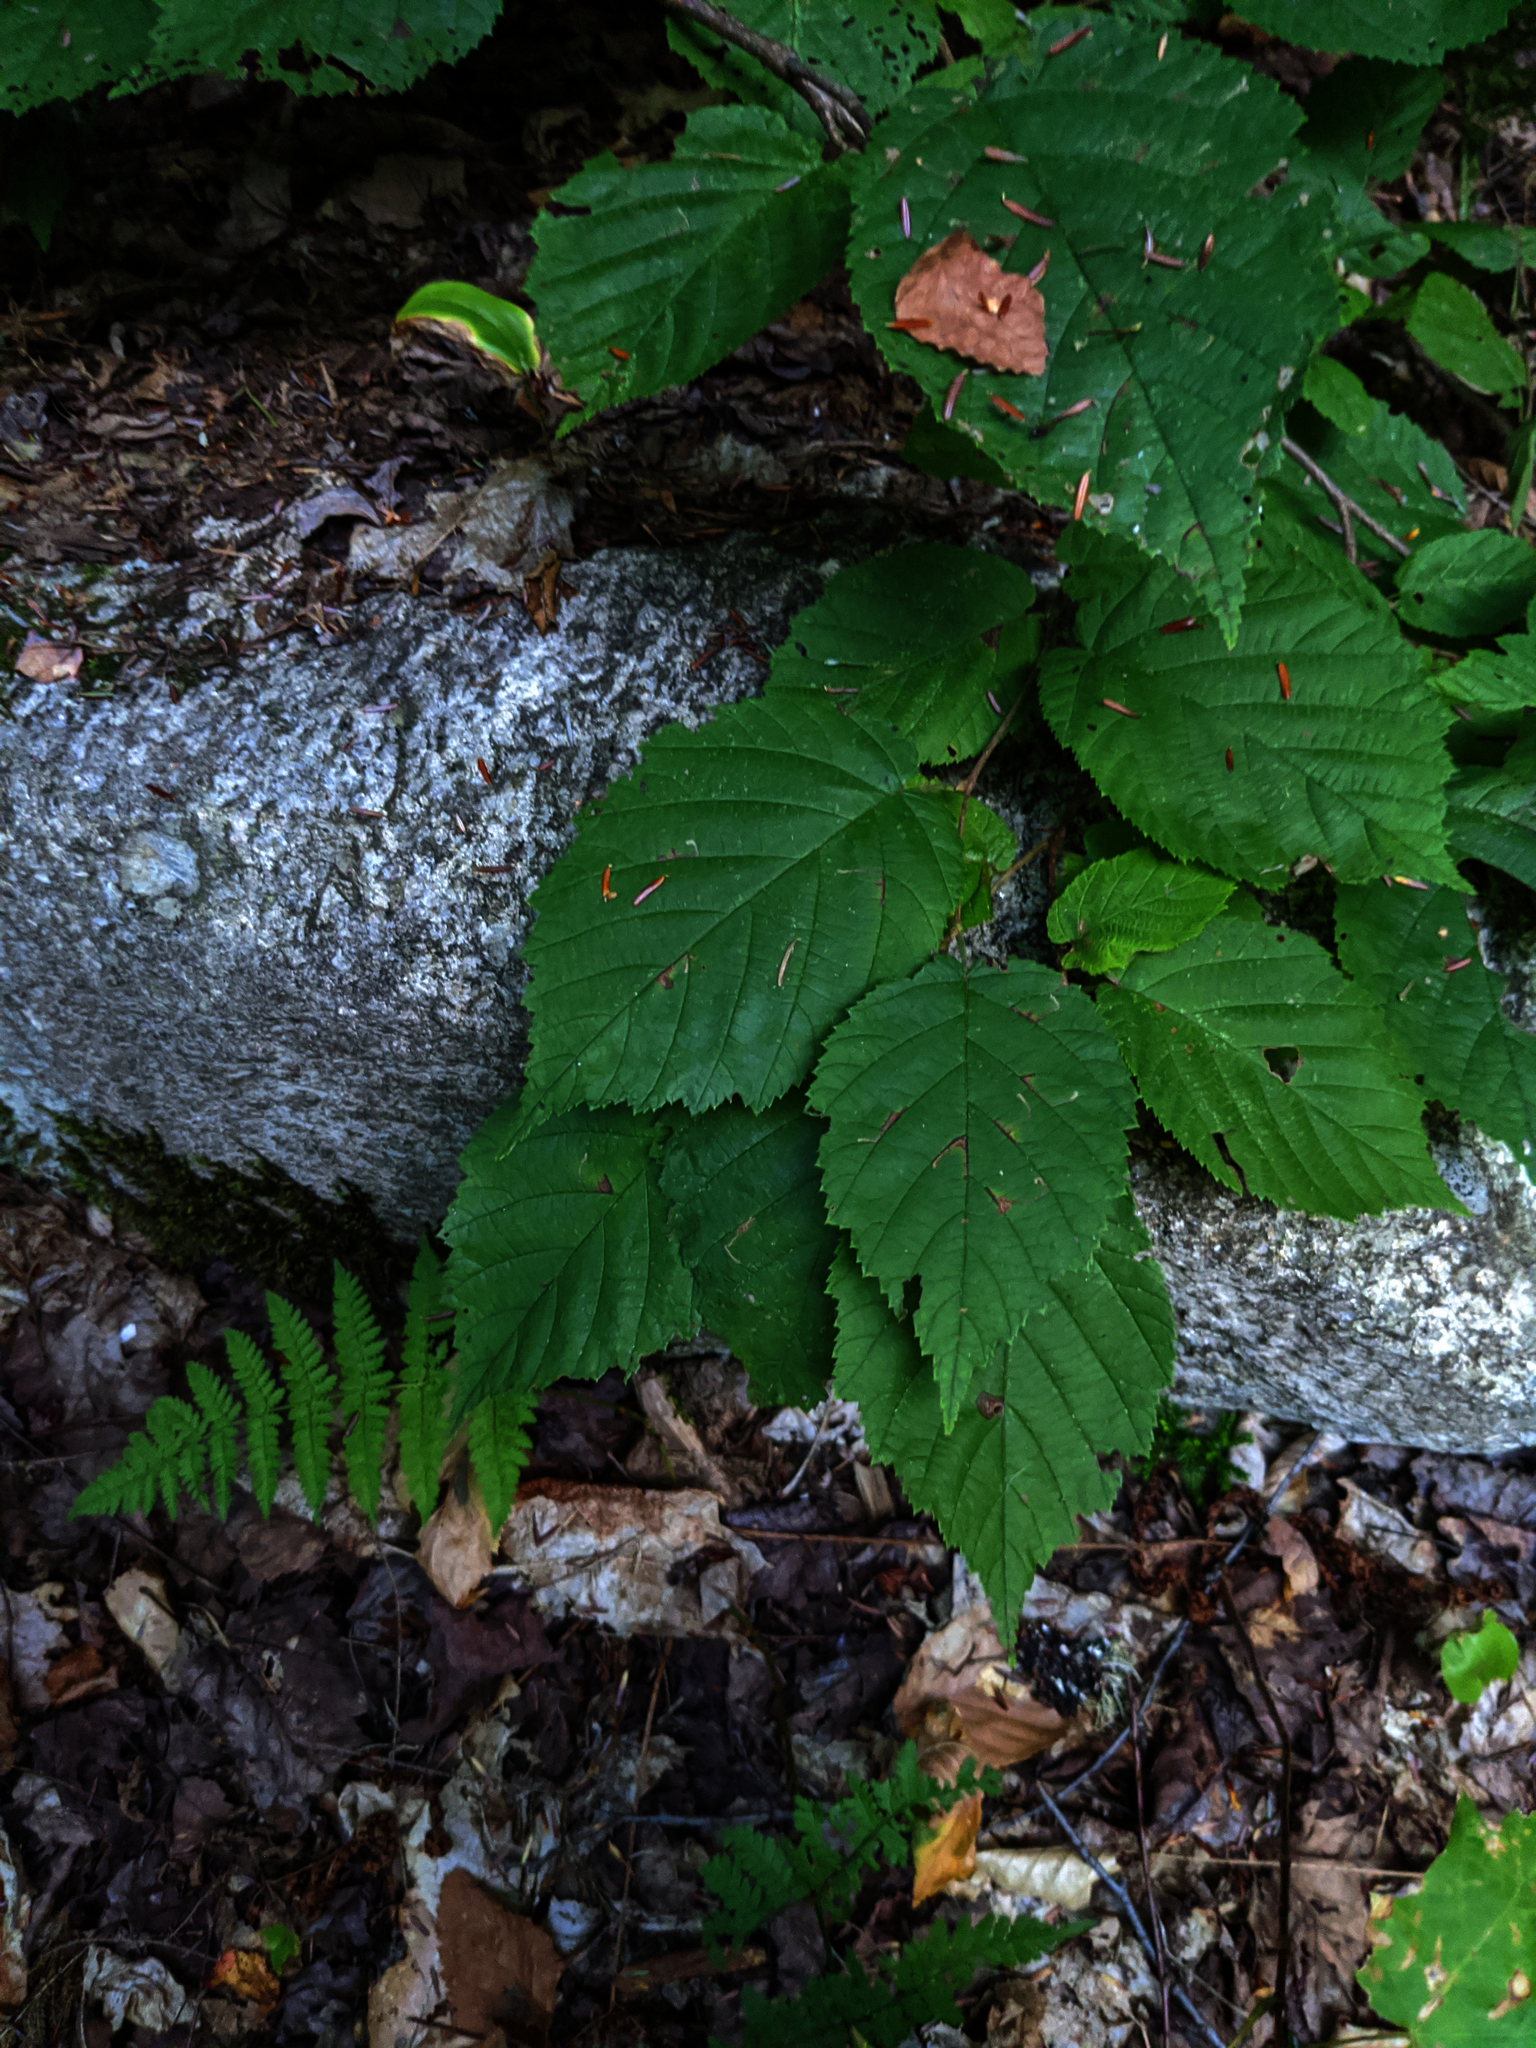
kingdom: Plantae
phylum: Tracheophyta
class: Magnoliopsida
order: Fagales
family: Betulaceae
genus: Corylus
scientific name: Corylus cornuta
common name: Beaked hazel
